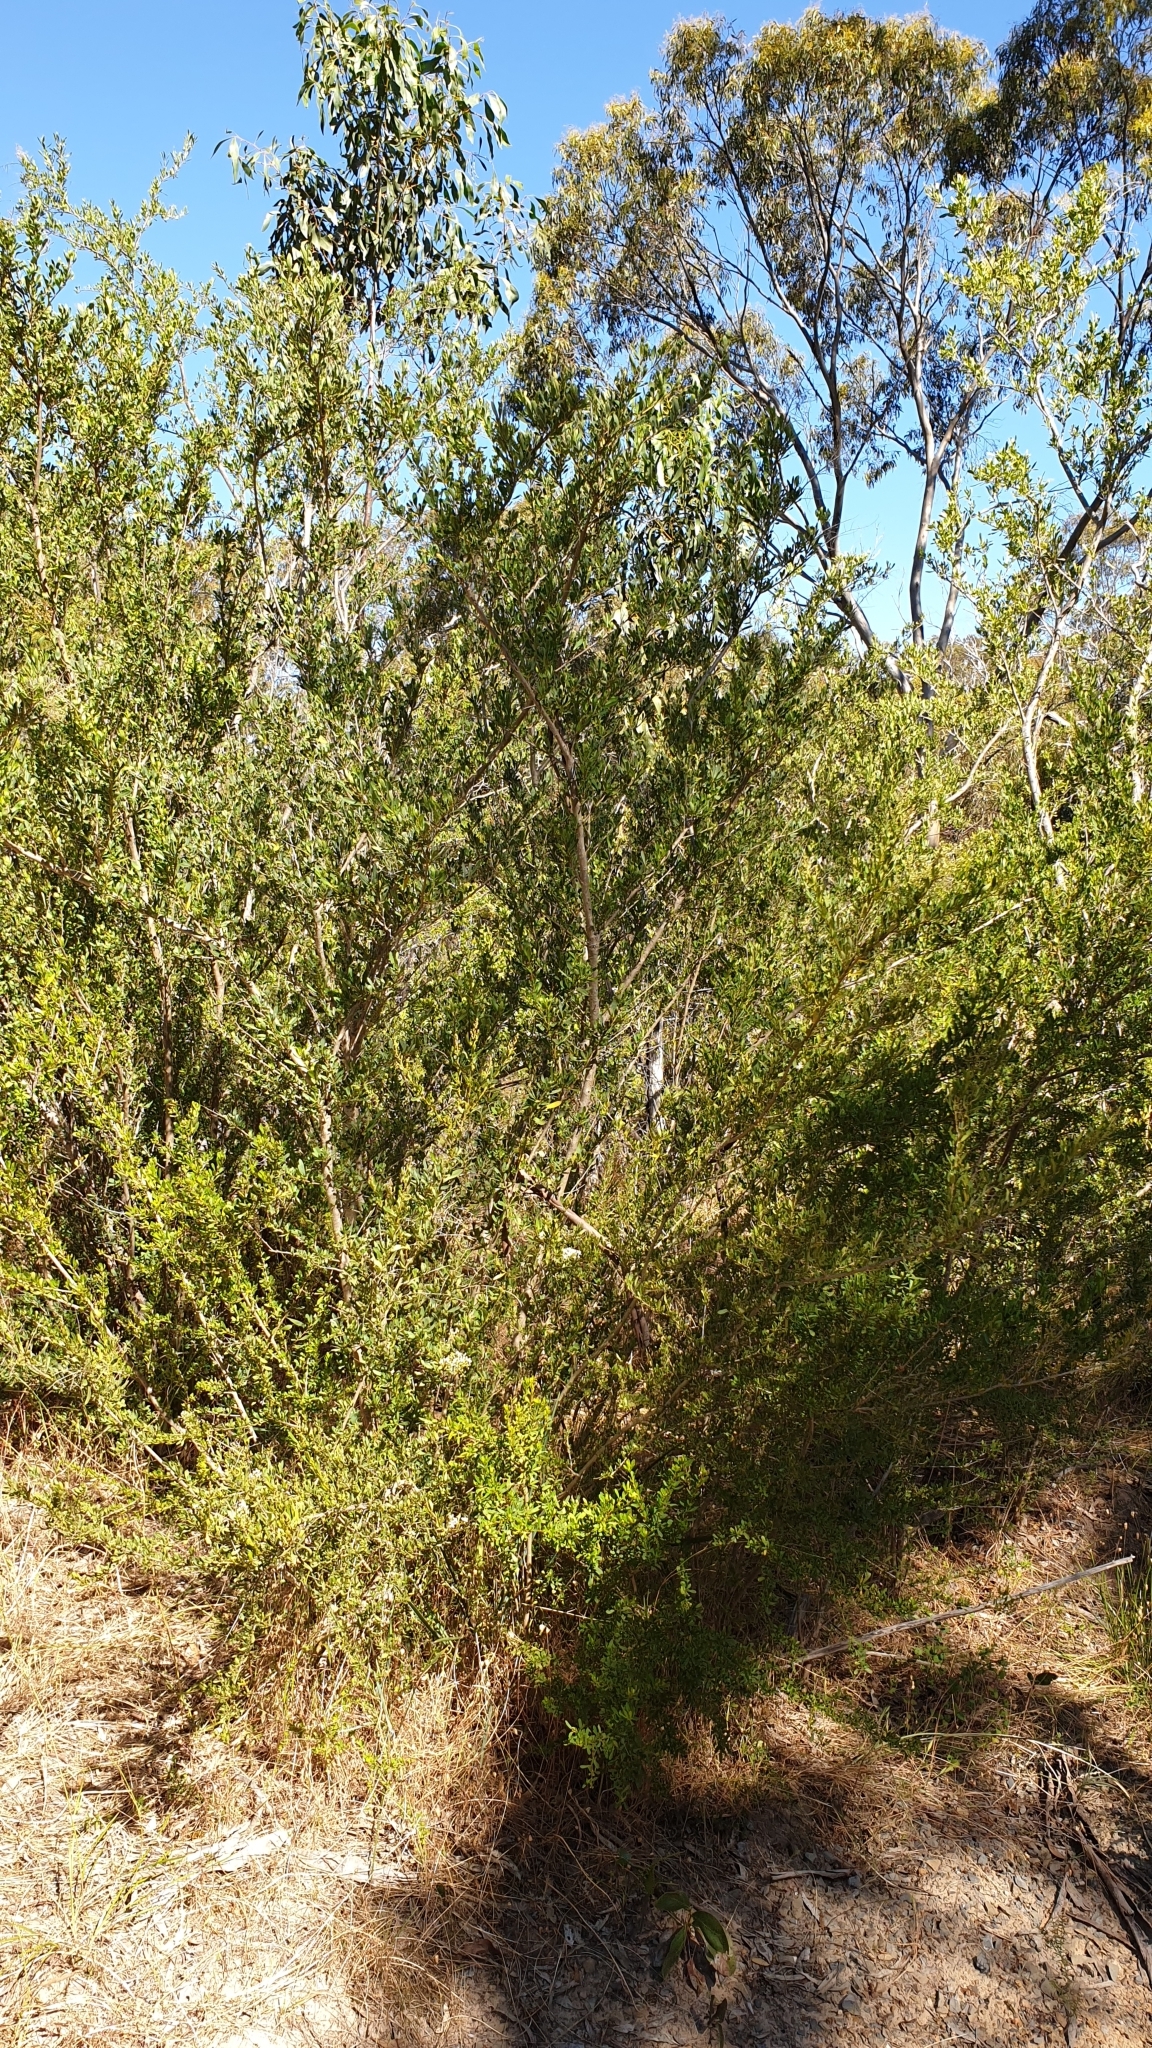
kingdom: Plantae
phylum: Tracheophyta
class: Magnoliopsida
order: Apiales
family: Pittosporaceae
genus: Bursaria
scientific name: Bursaria spinosa
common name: Australian blackthorn
